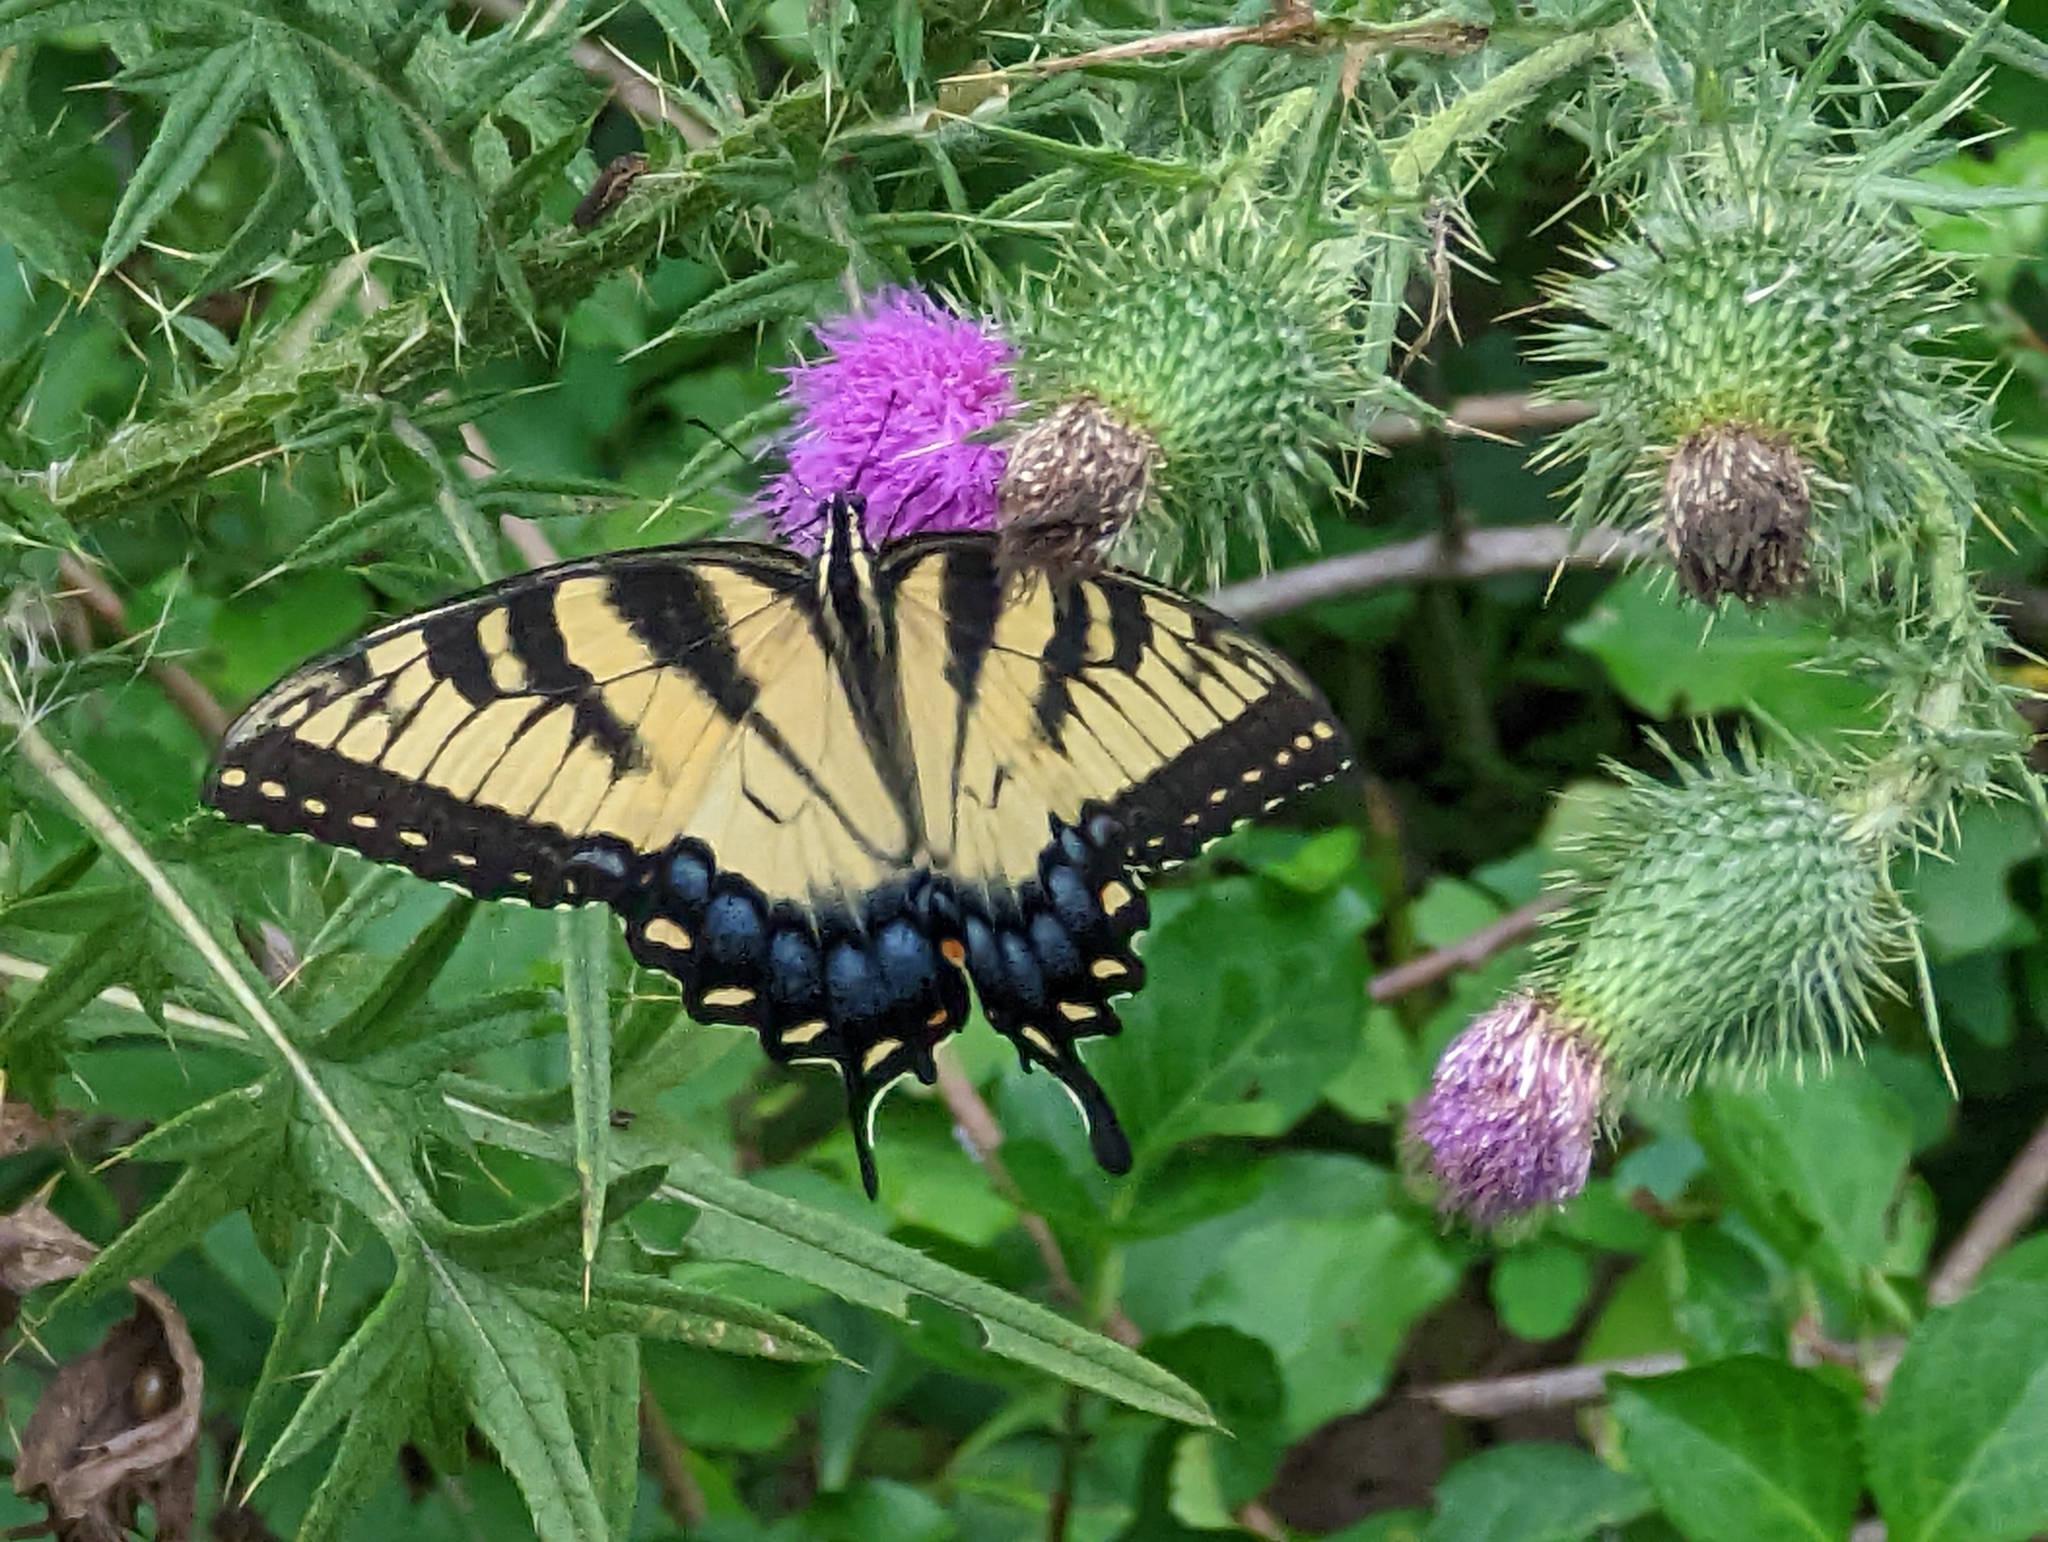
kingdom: Animalia
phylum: Arthropoda
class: Insecta
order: Lepidoptera
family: Papilionidae
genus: Papilio
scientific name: Papilio glaucus
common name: Tiger swallowtail
